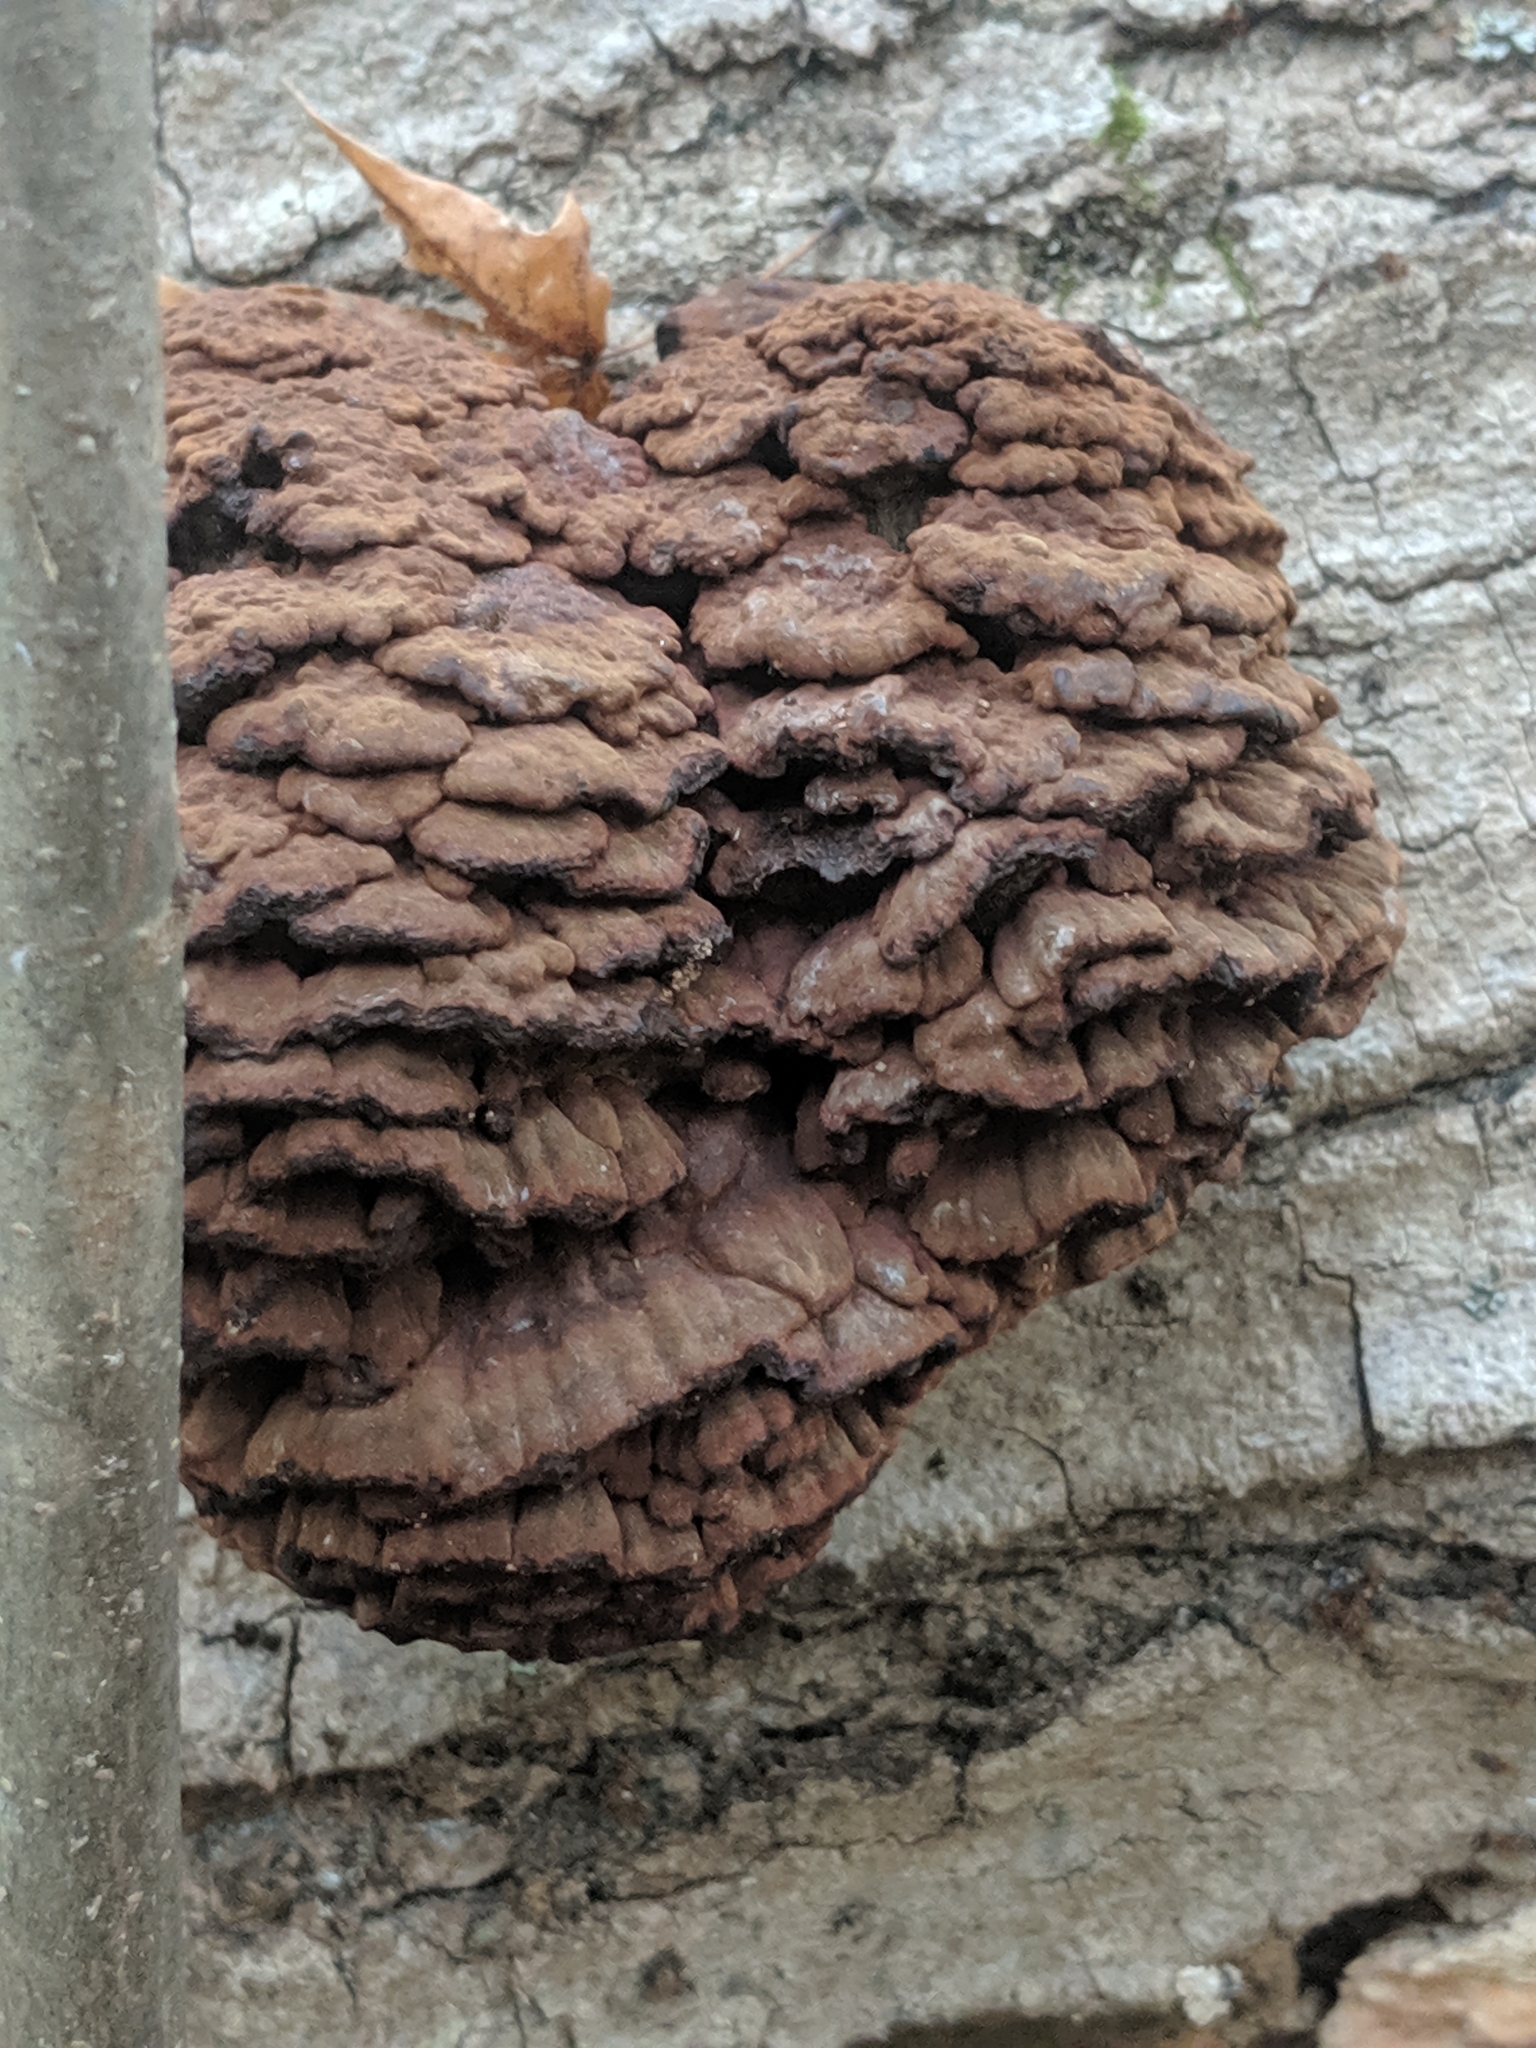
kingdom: Fungi
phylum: Basidiomycota
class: Agaricomycetes
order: Polyporales
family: Polyporaceae
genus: Globifomes
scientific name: Globifomes graveolens
